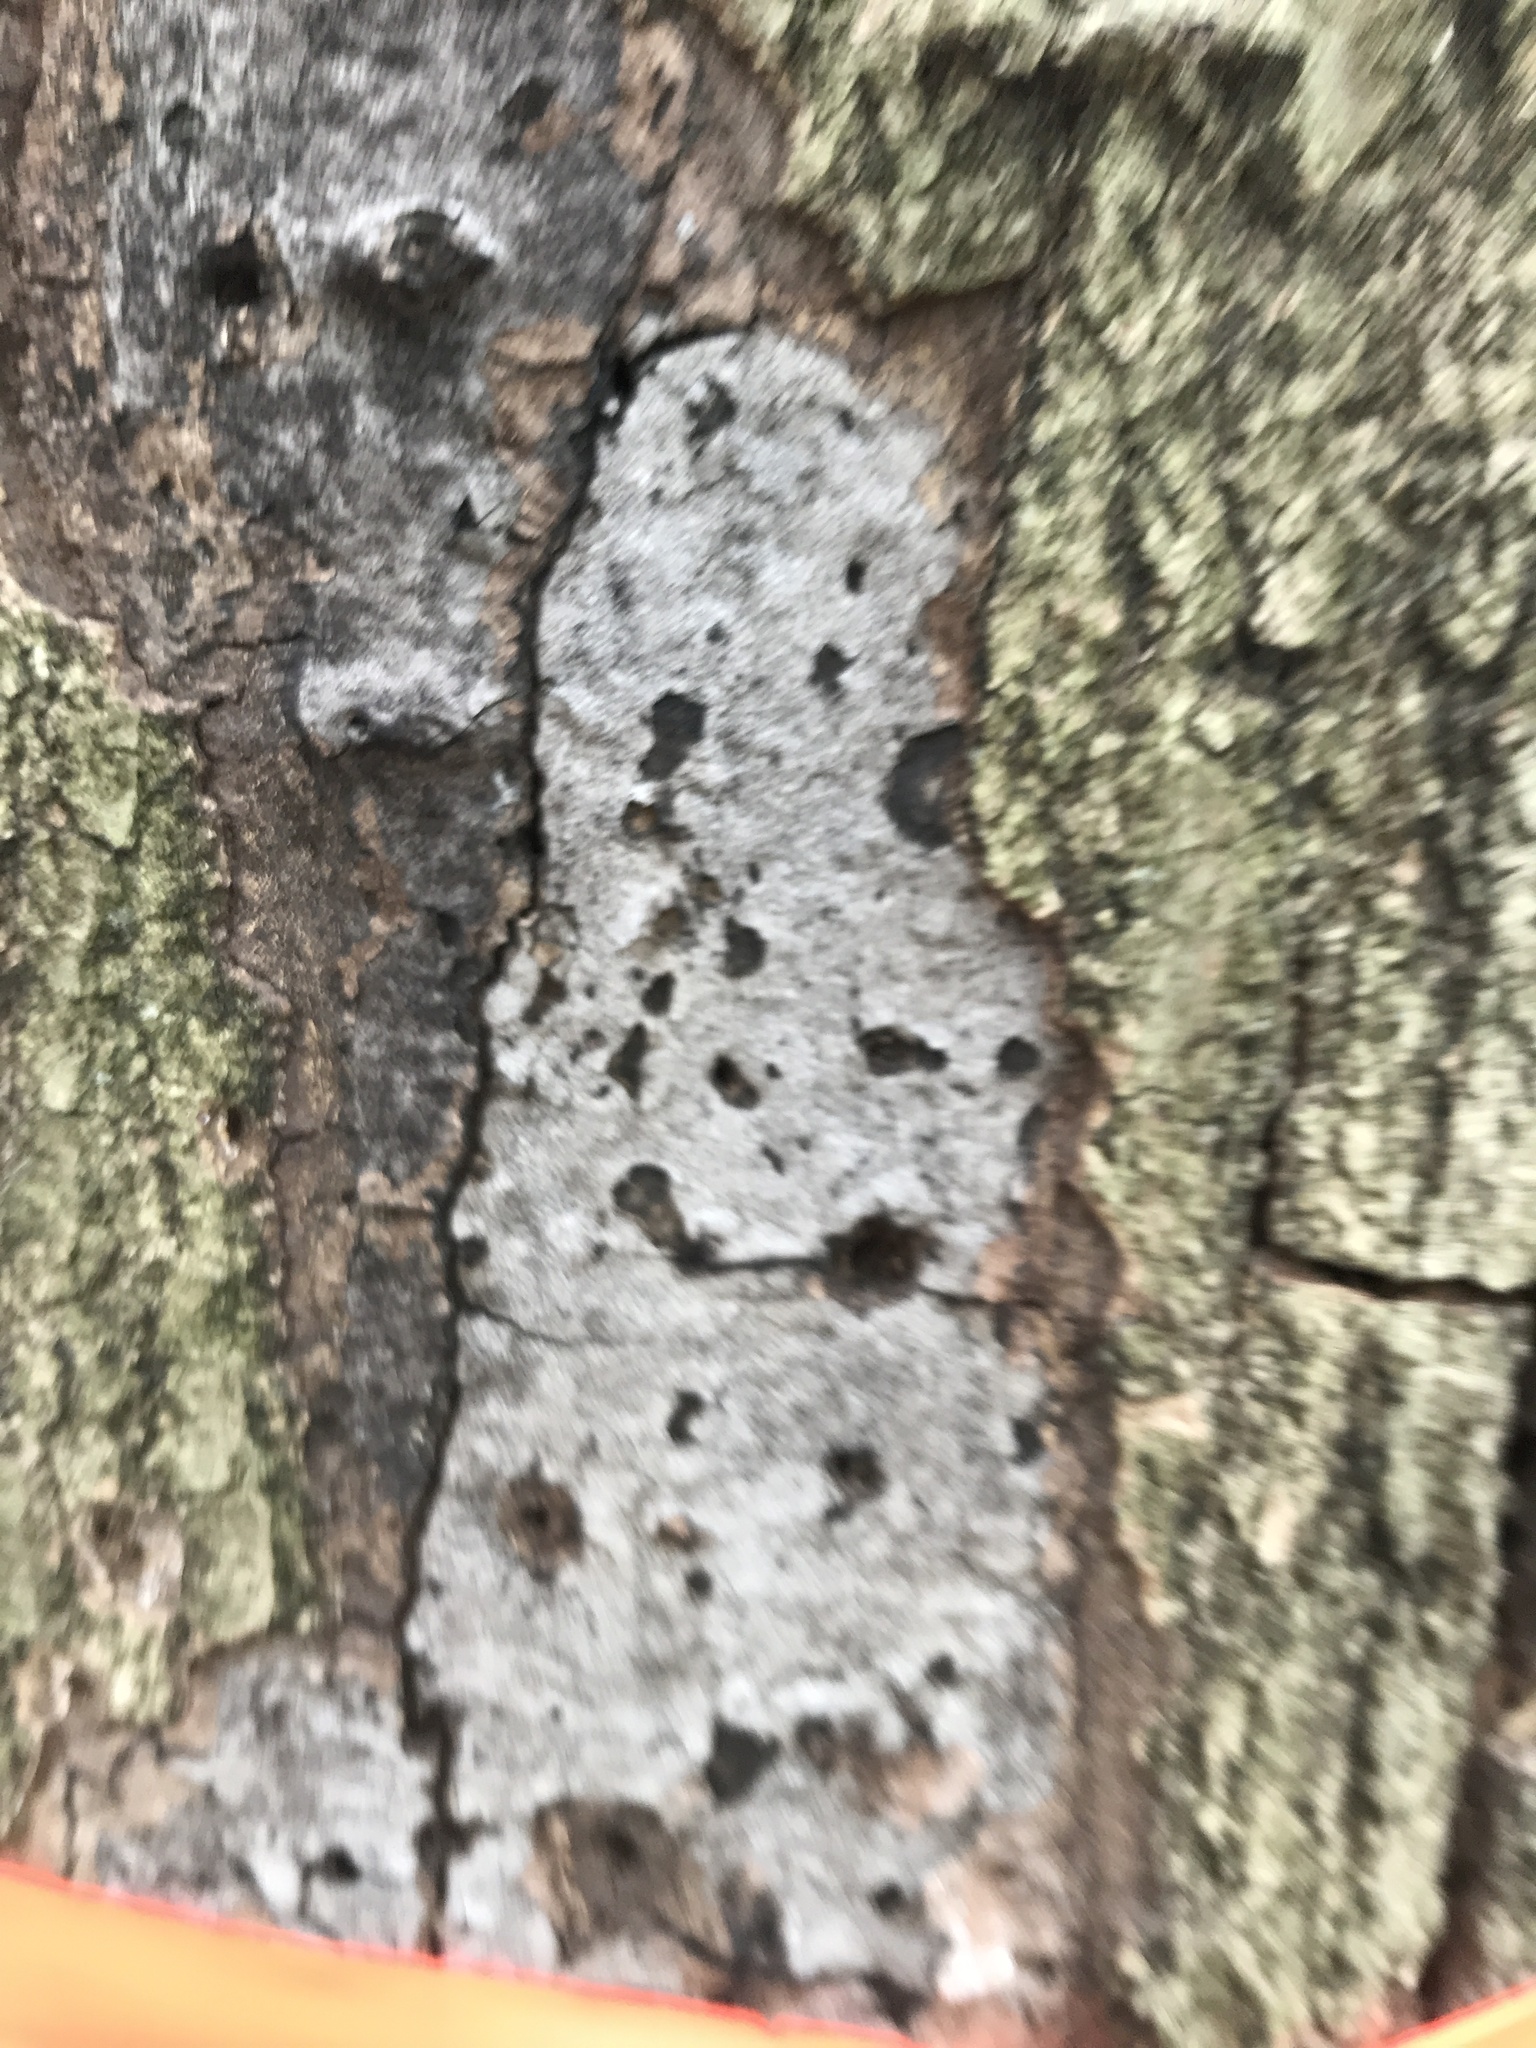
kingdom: Fungi
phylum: Ascomycota
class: Sordariomycetes
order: Xylariales
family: Graphostromataceae
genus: Biscogniauxia
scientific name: Biscogniauxia atropunctata
